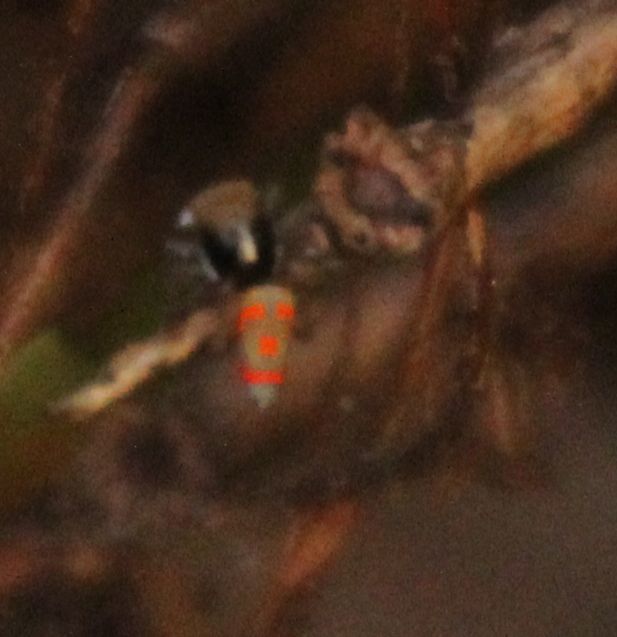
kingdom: Animalia
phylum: Arthropoda
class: Arachnida
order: Araneae
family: Salticidae
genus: Maratus
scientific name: Maratus pavonis
